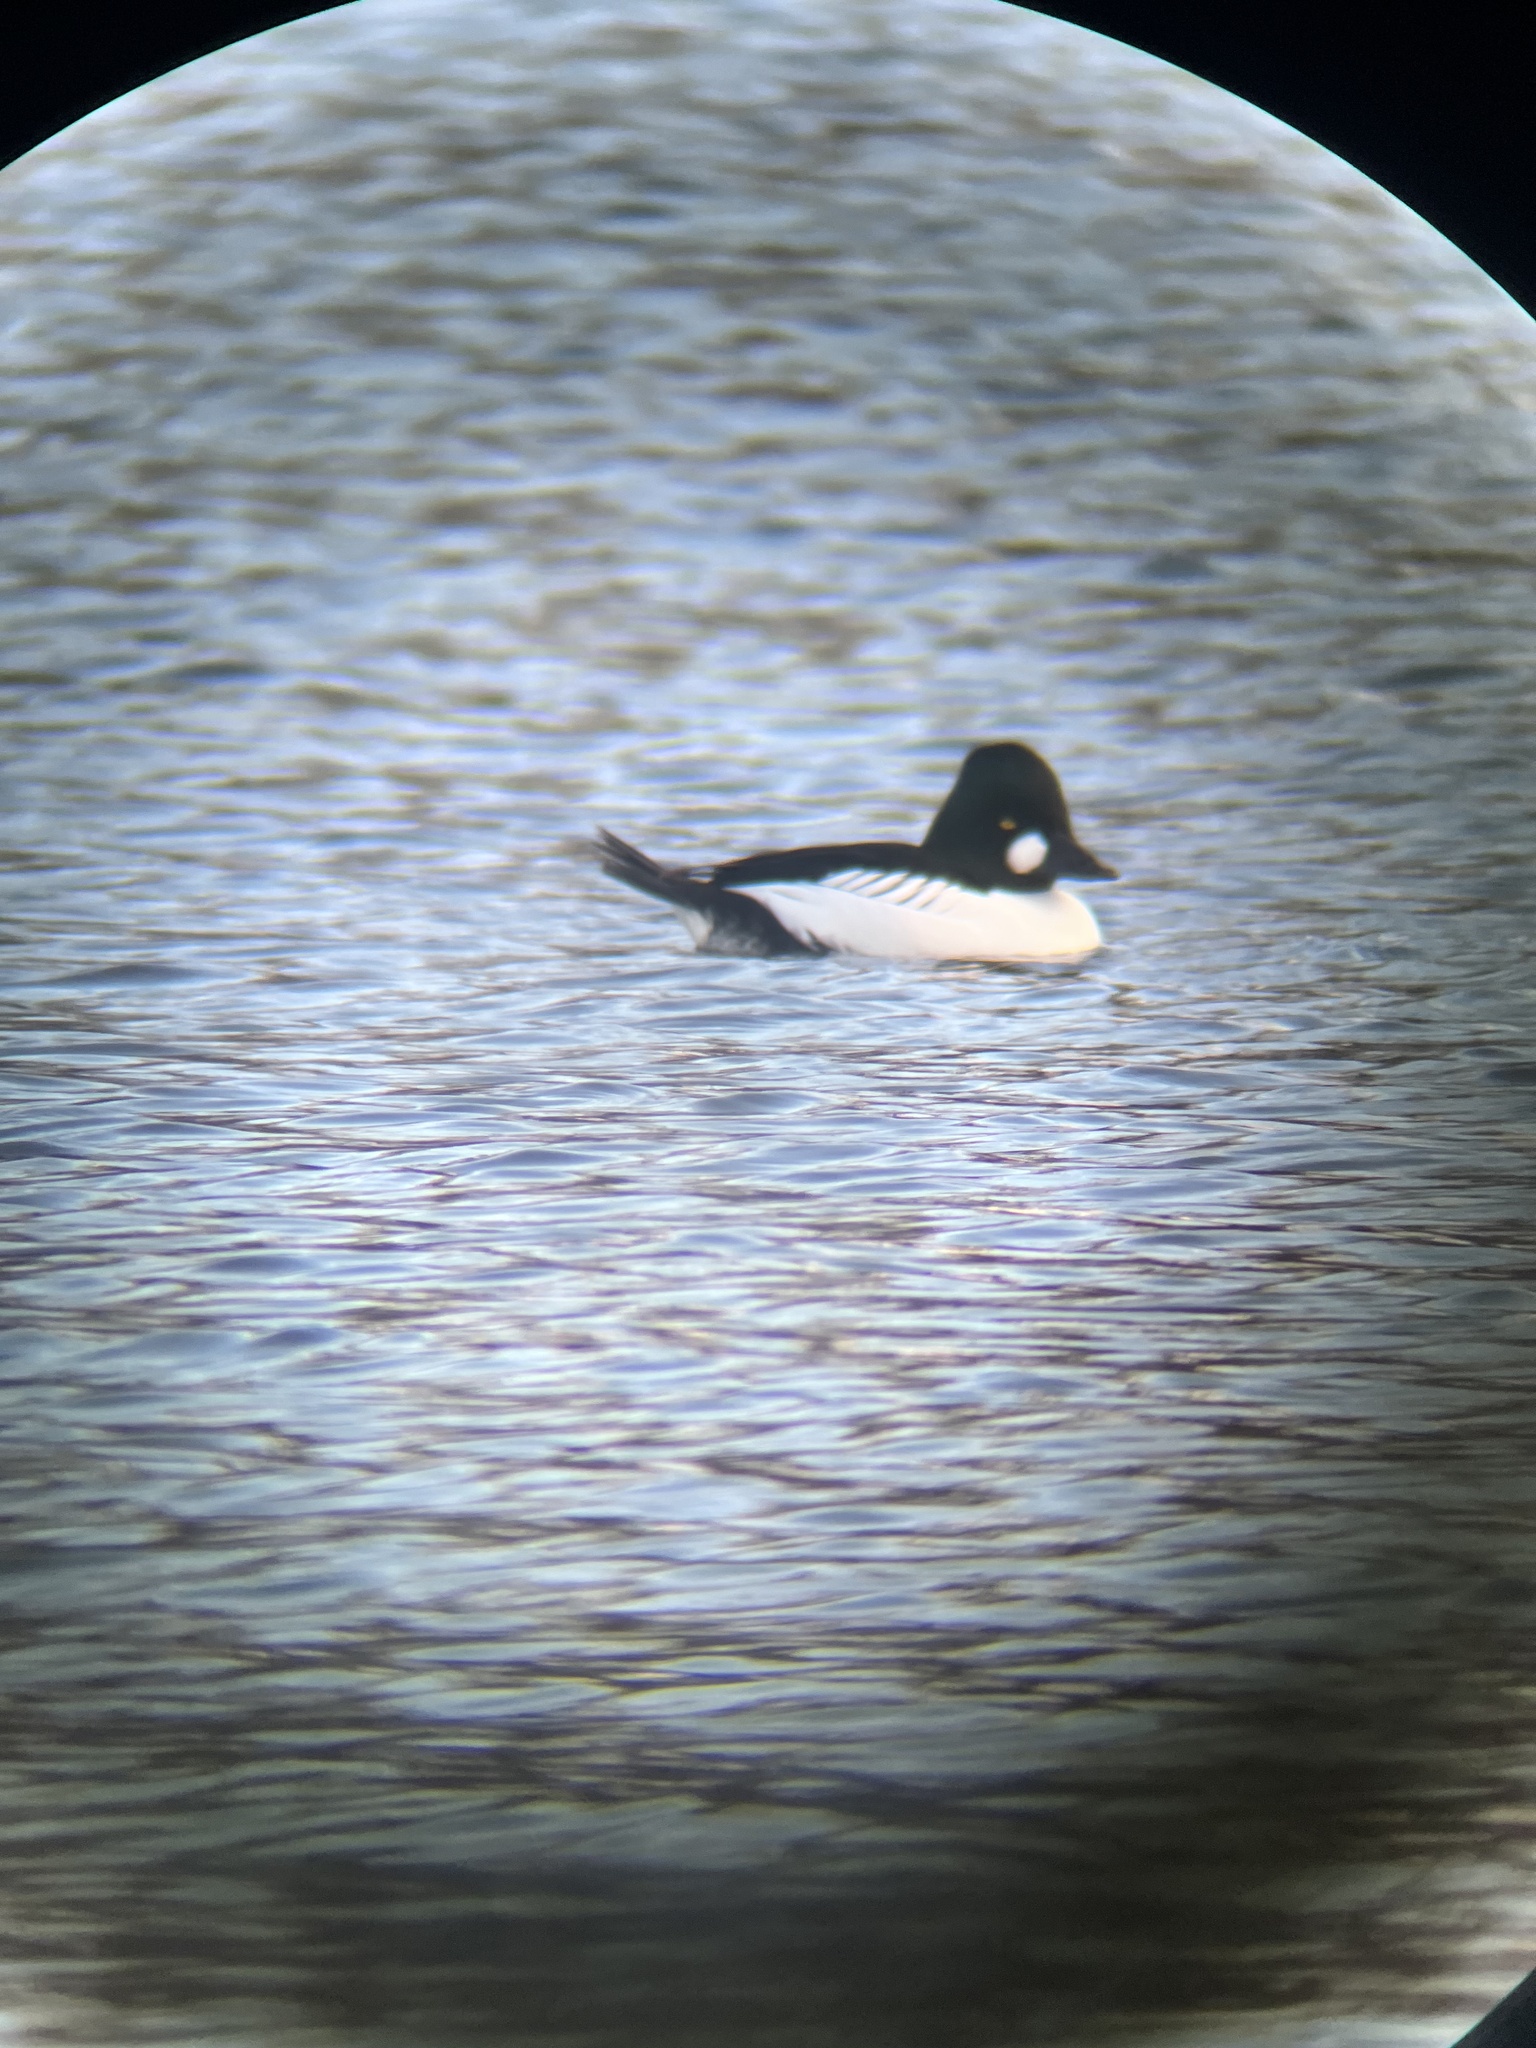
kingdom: Animalia
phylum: Chordata
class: Aves
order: Anseriformes
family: Anatidae
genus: Bucephala
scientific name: Bucephala clangula
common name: Common goldeneye
